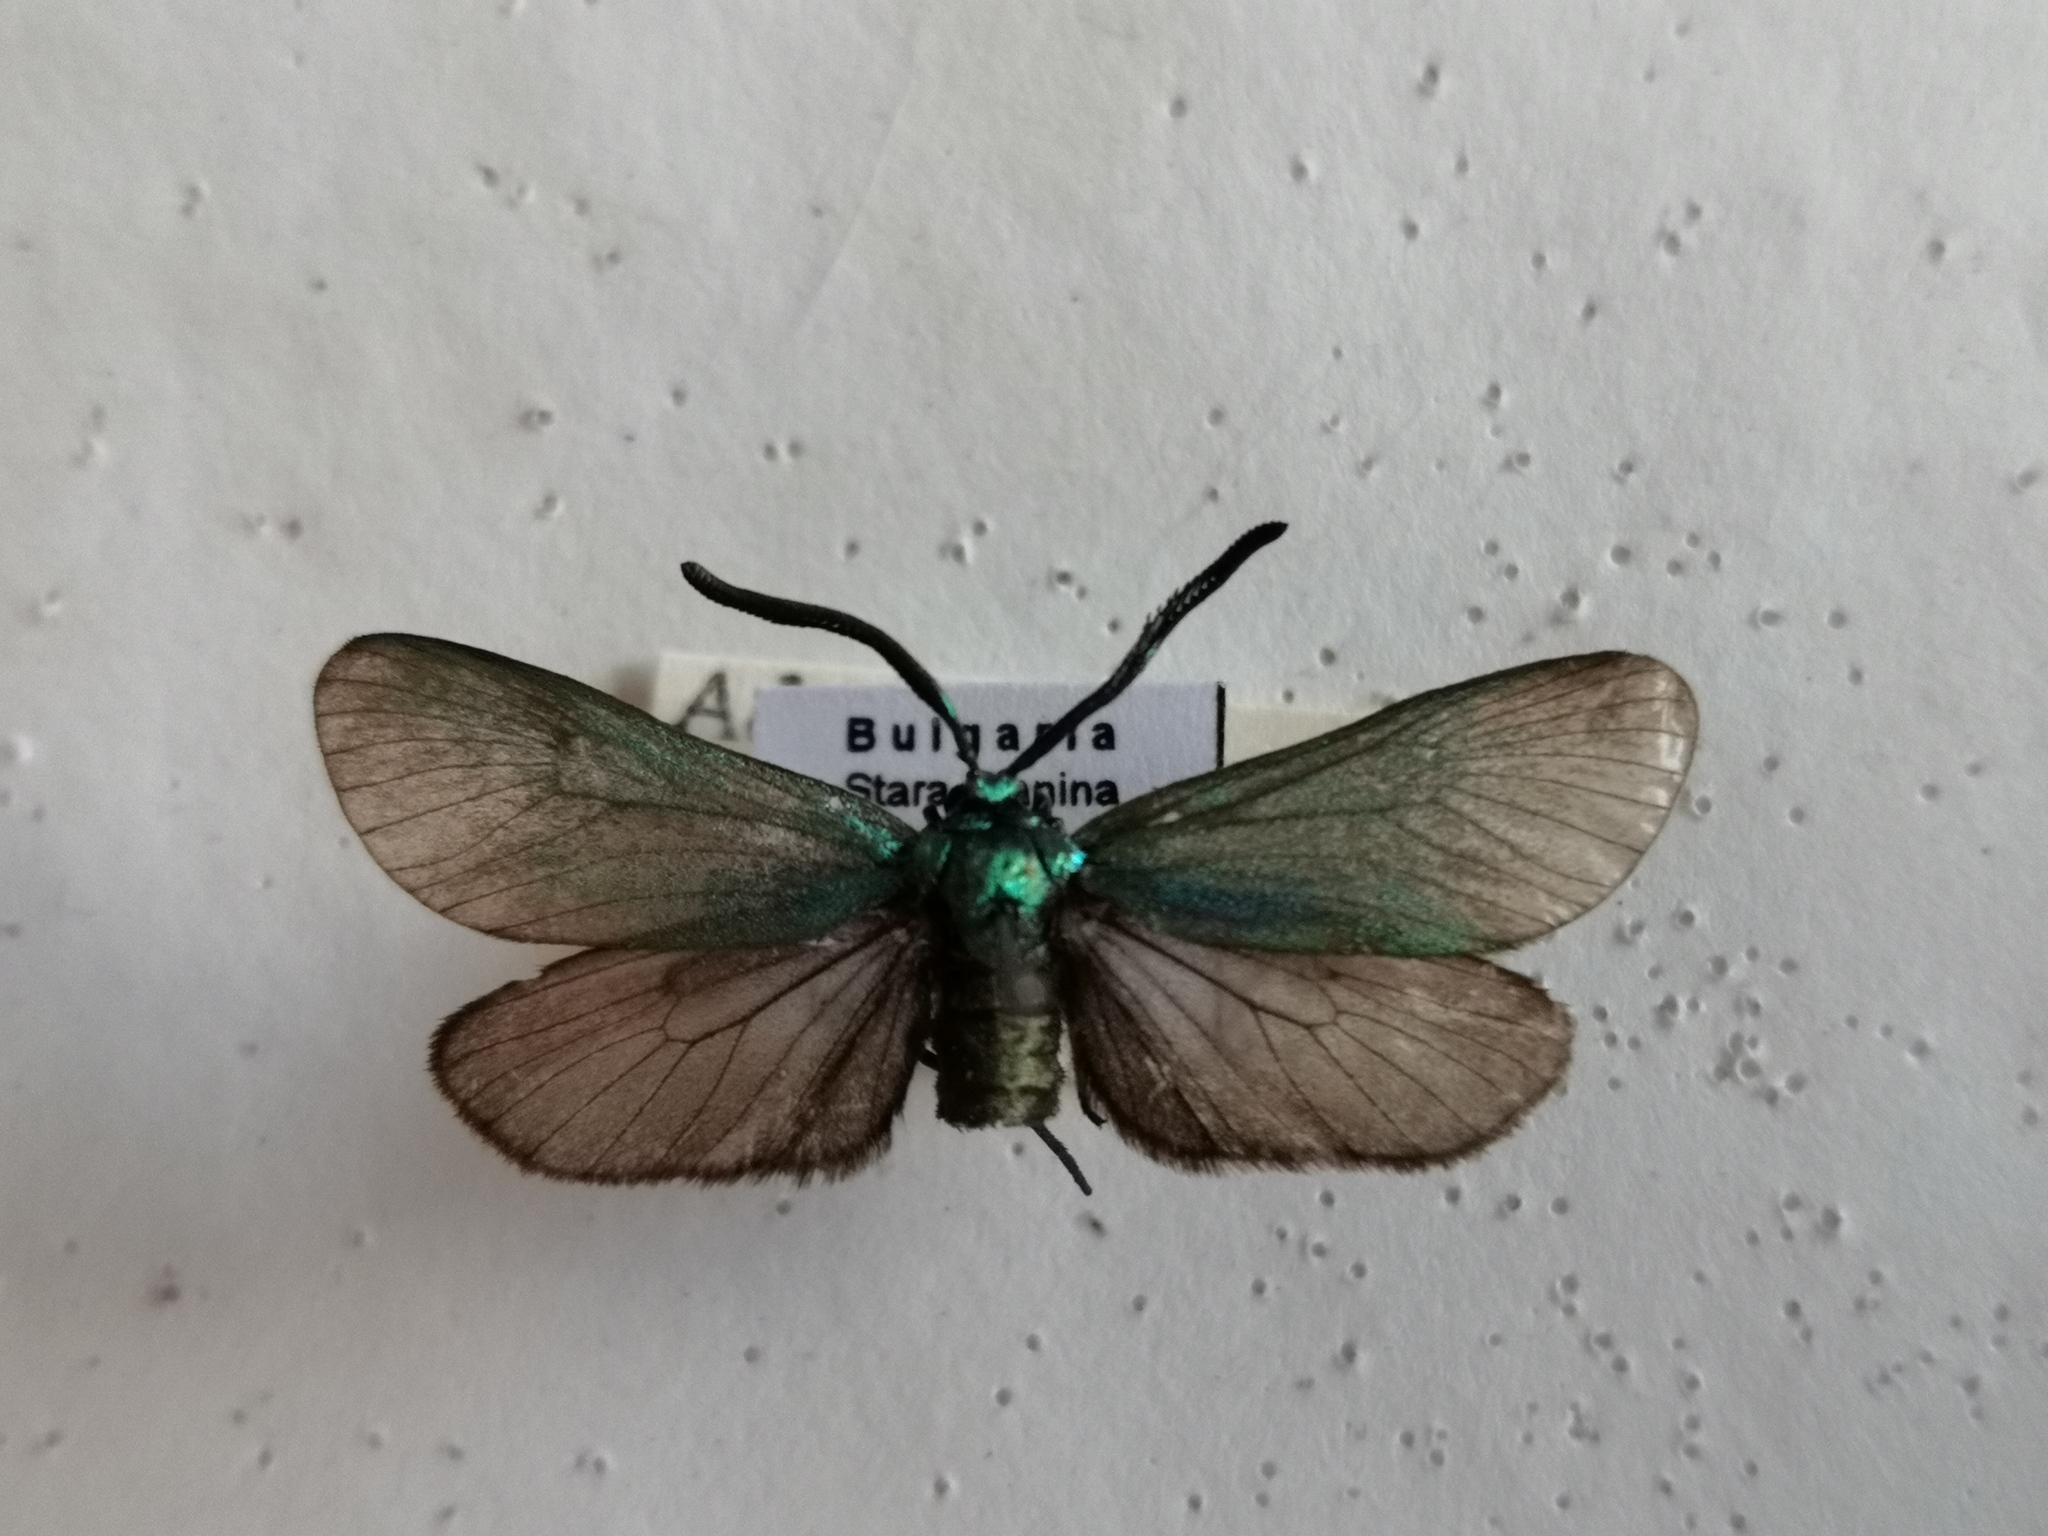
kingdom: Animalia
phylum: Arthropoda
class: Insecta
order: Lepidoptera
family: Zygaenidae
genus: Adscita
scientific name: Adscita statices
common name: Forester
